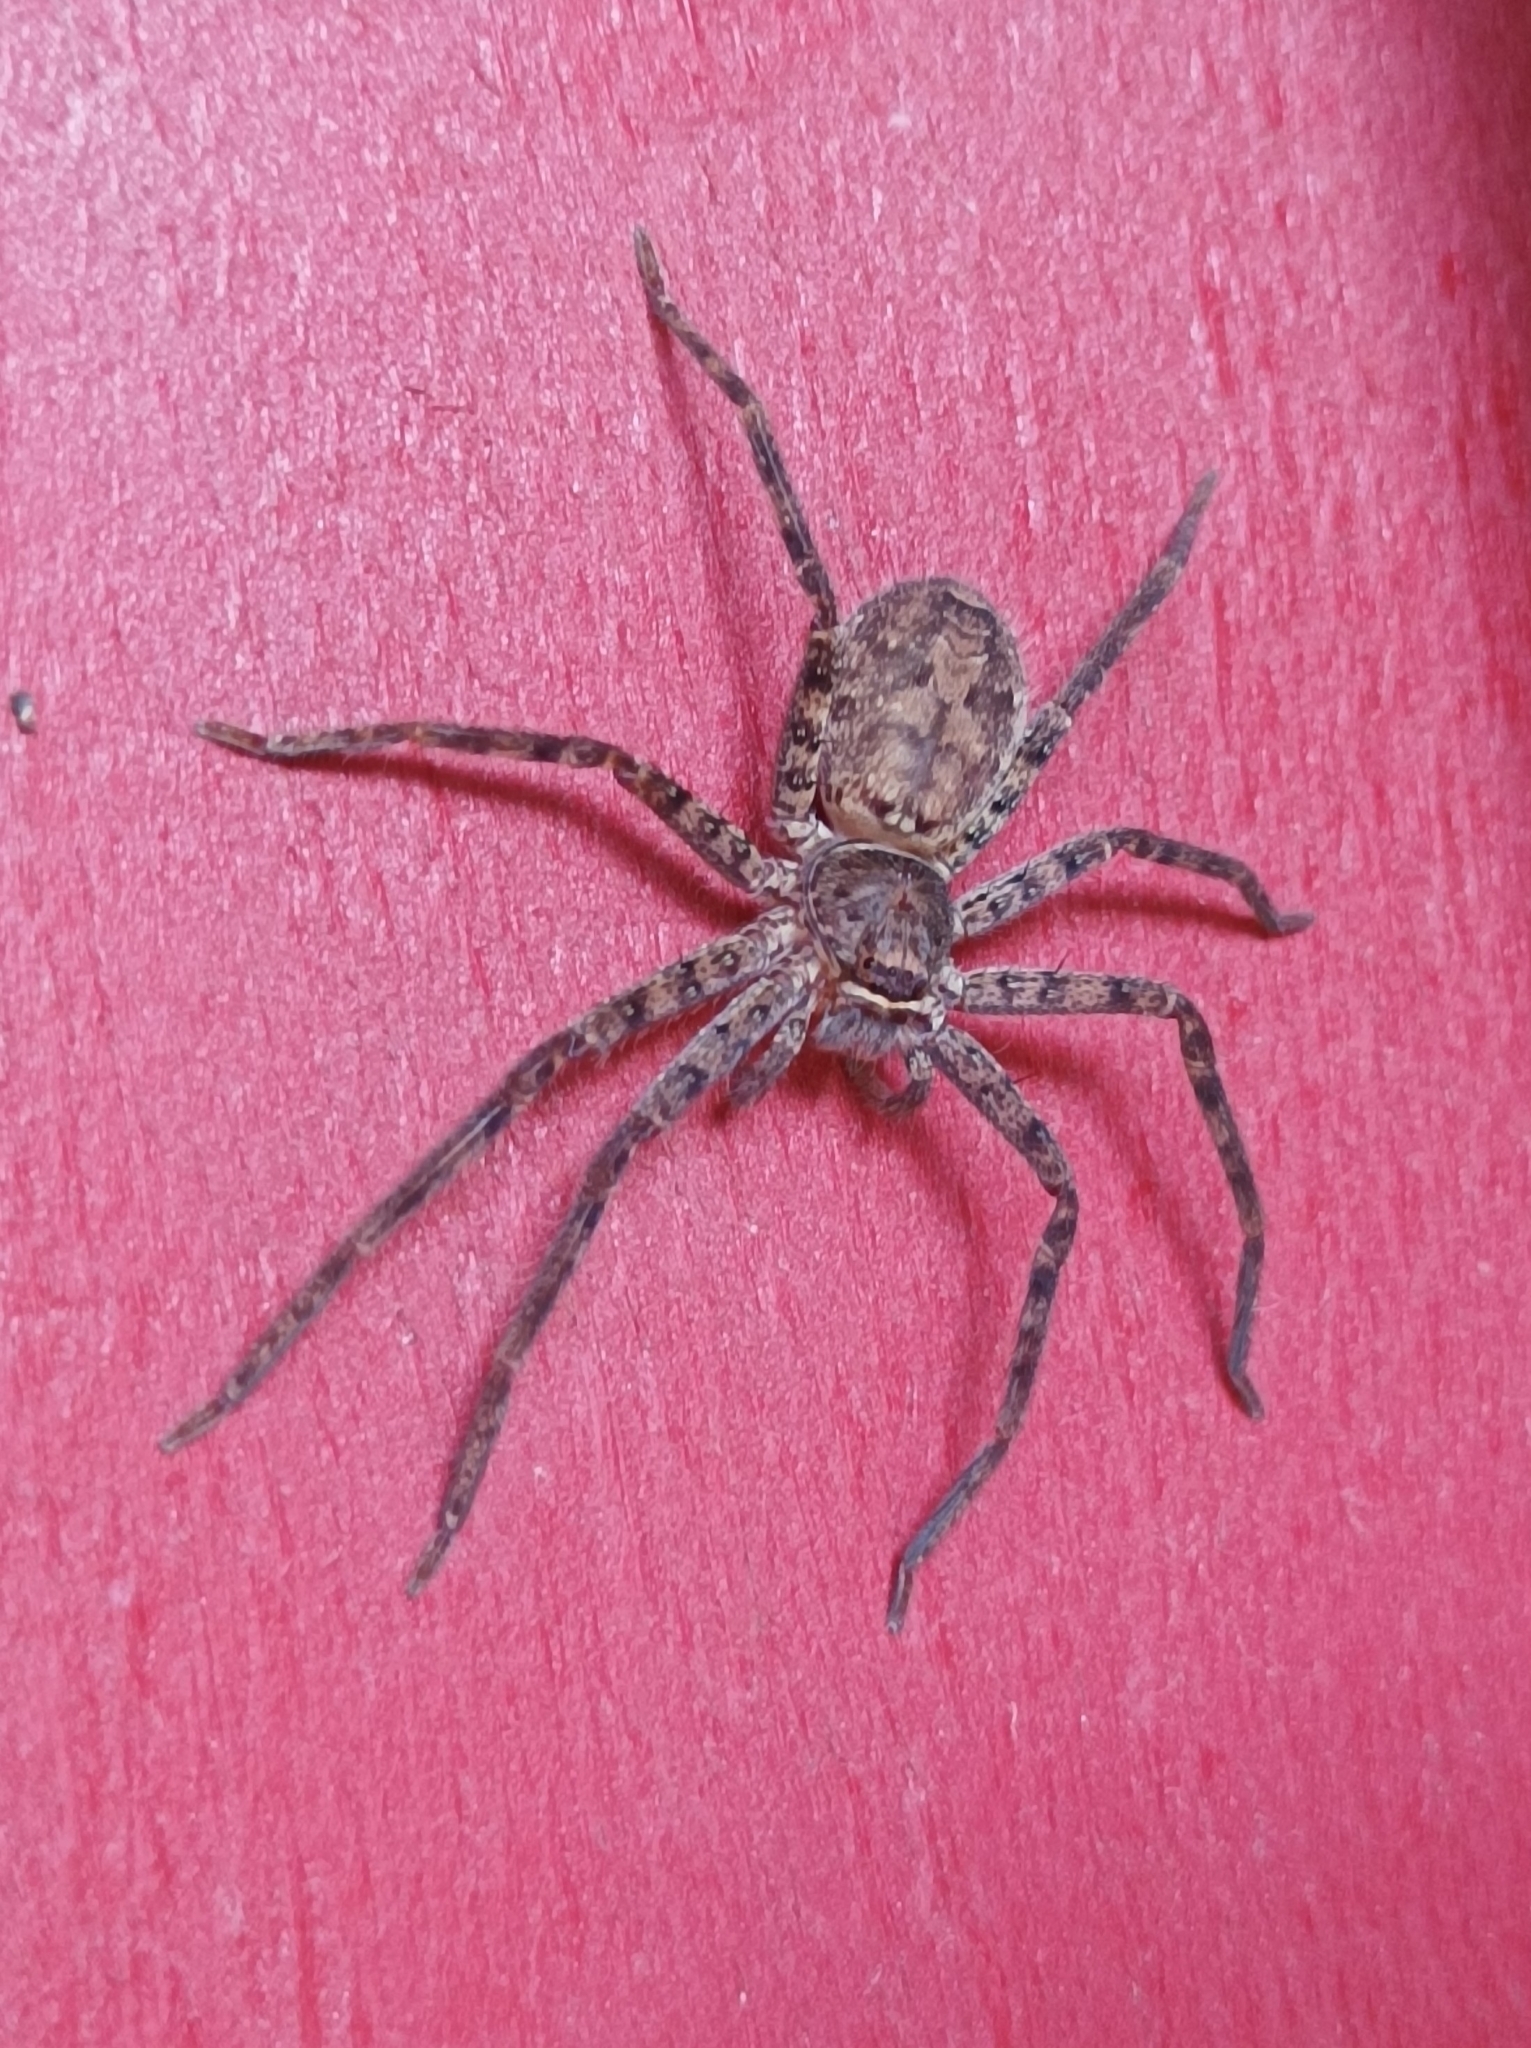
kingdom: Animalia
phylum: Arthropoda
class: Arachnida
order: Araneae
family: Sparassidae
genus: Heteropoda
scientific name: Heteropoda venatoria
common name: Huntsman spider
